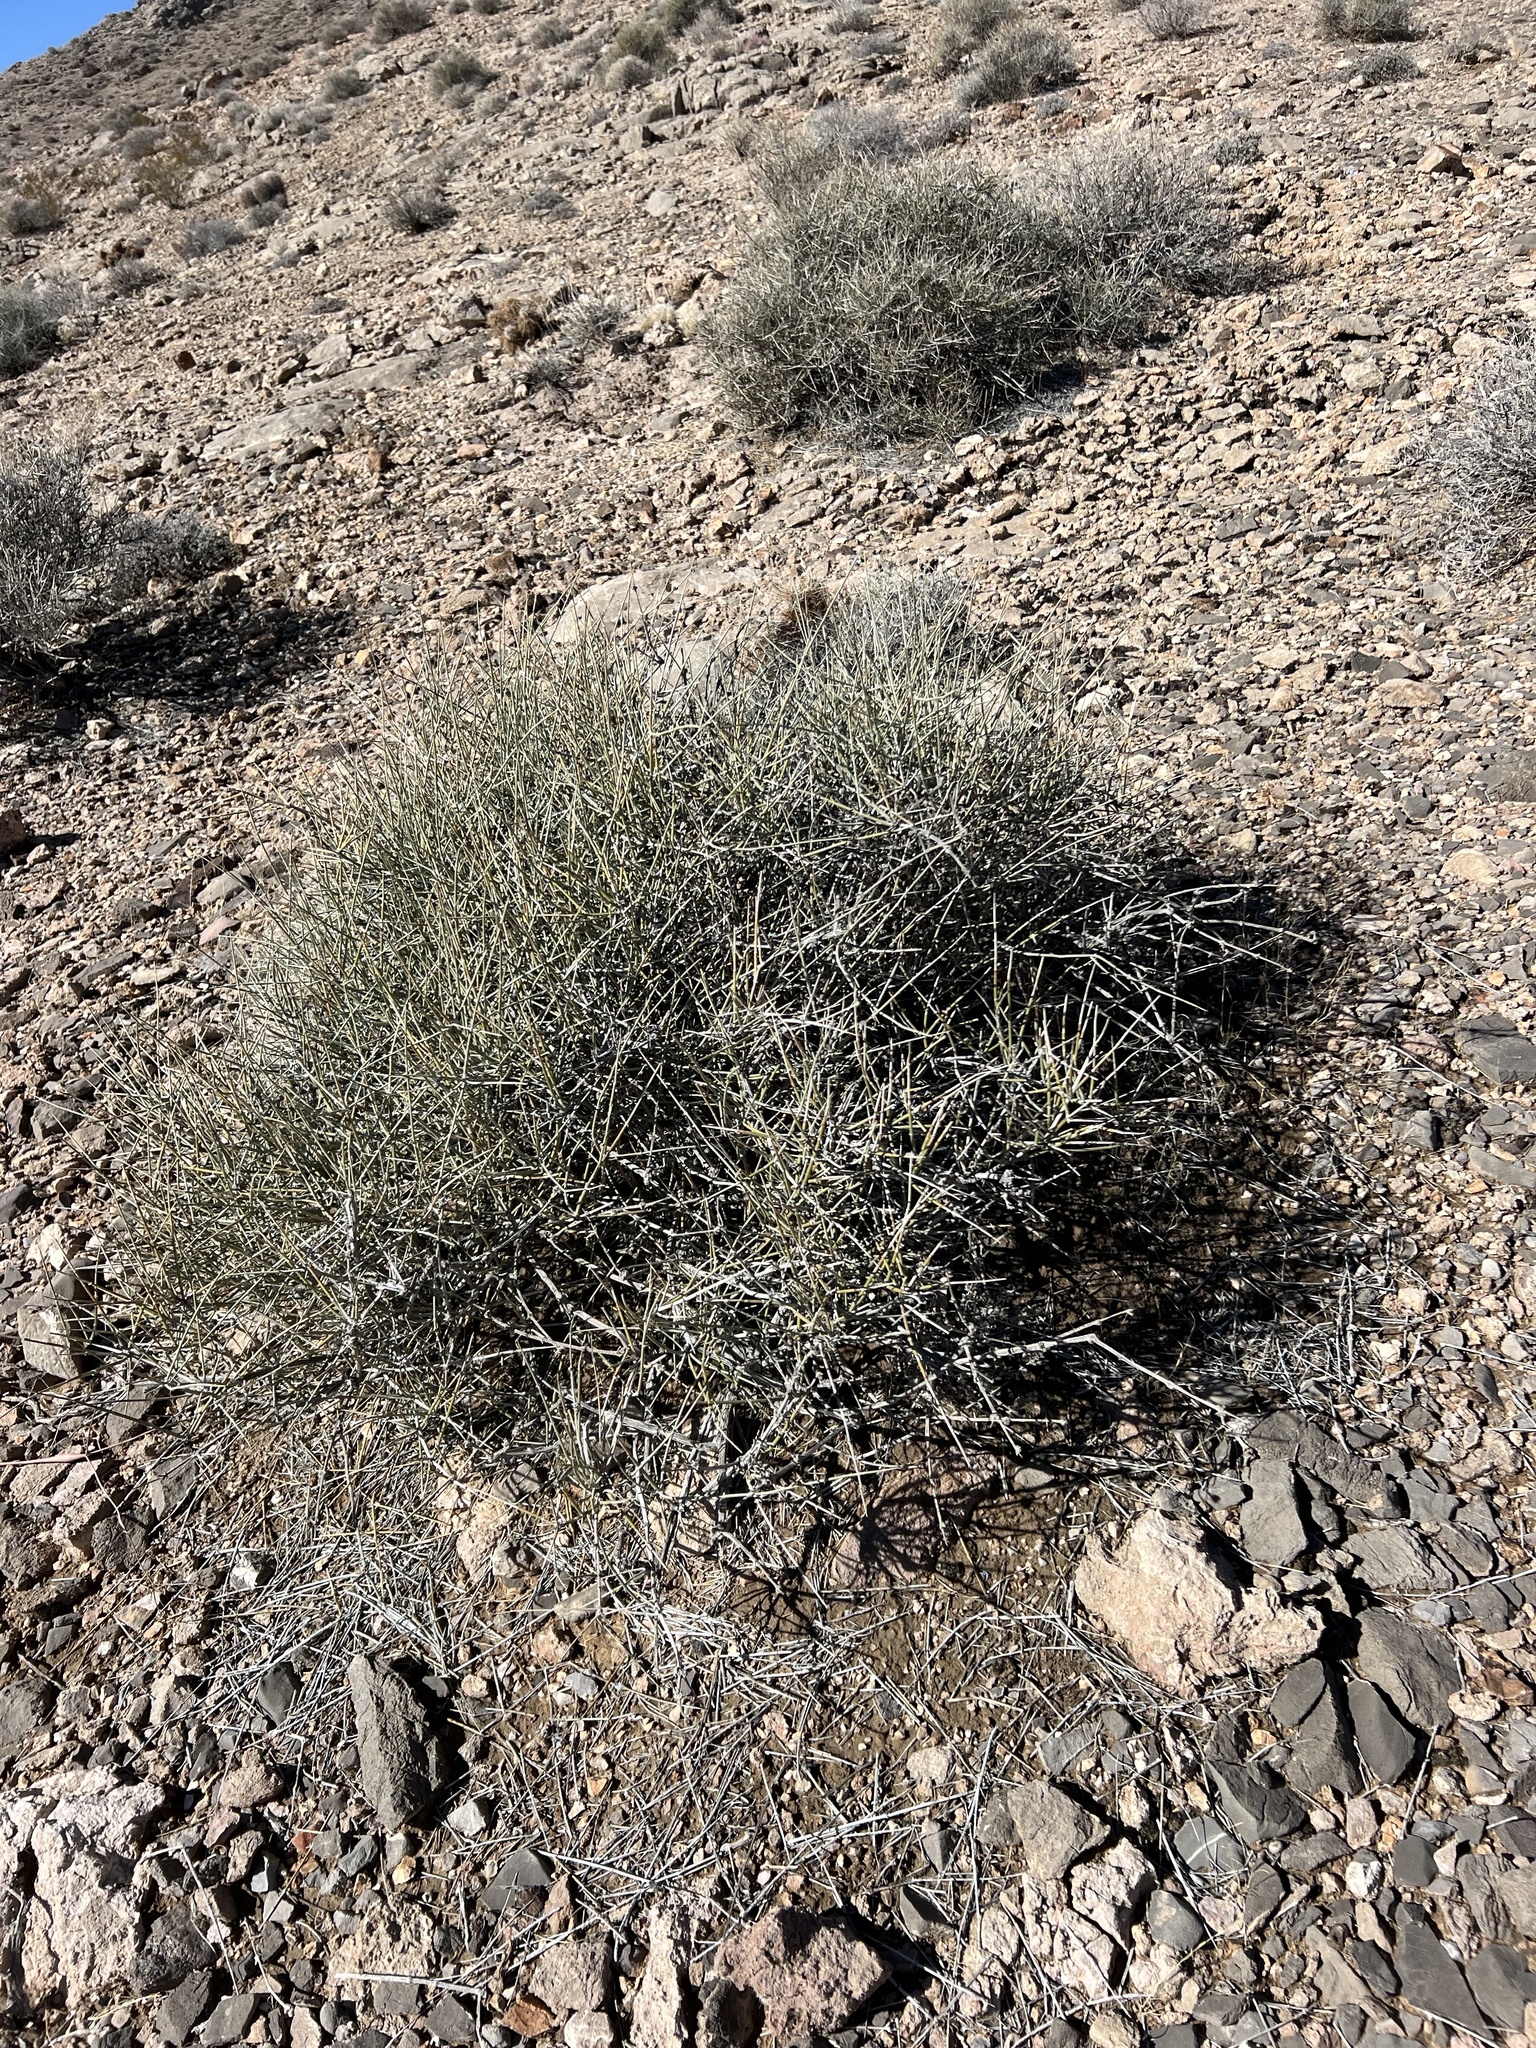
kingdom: Plantae
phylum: Tracheophyta
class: Gnetopsida
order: Ephedrales
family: Ephedraceae
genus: Ephedra
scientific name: Ephedra nevadensis
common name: Gray ephedra
